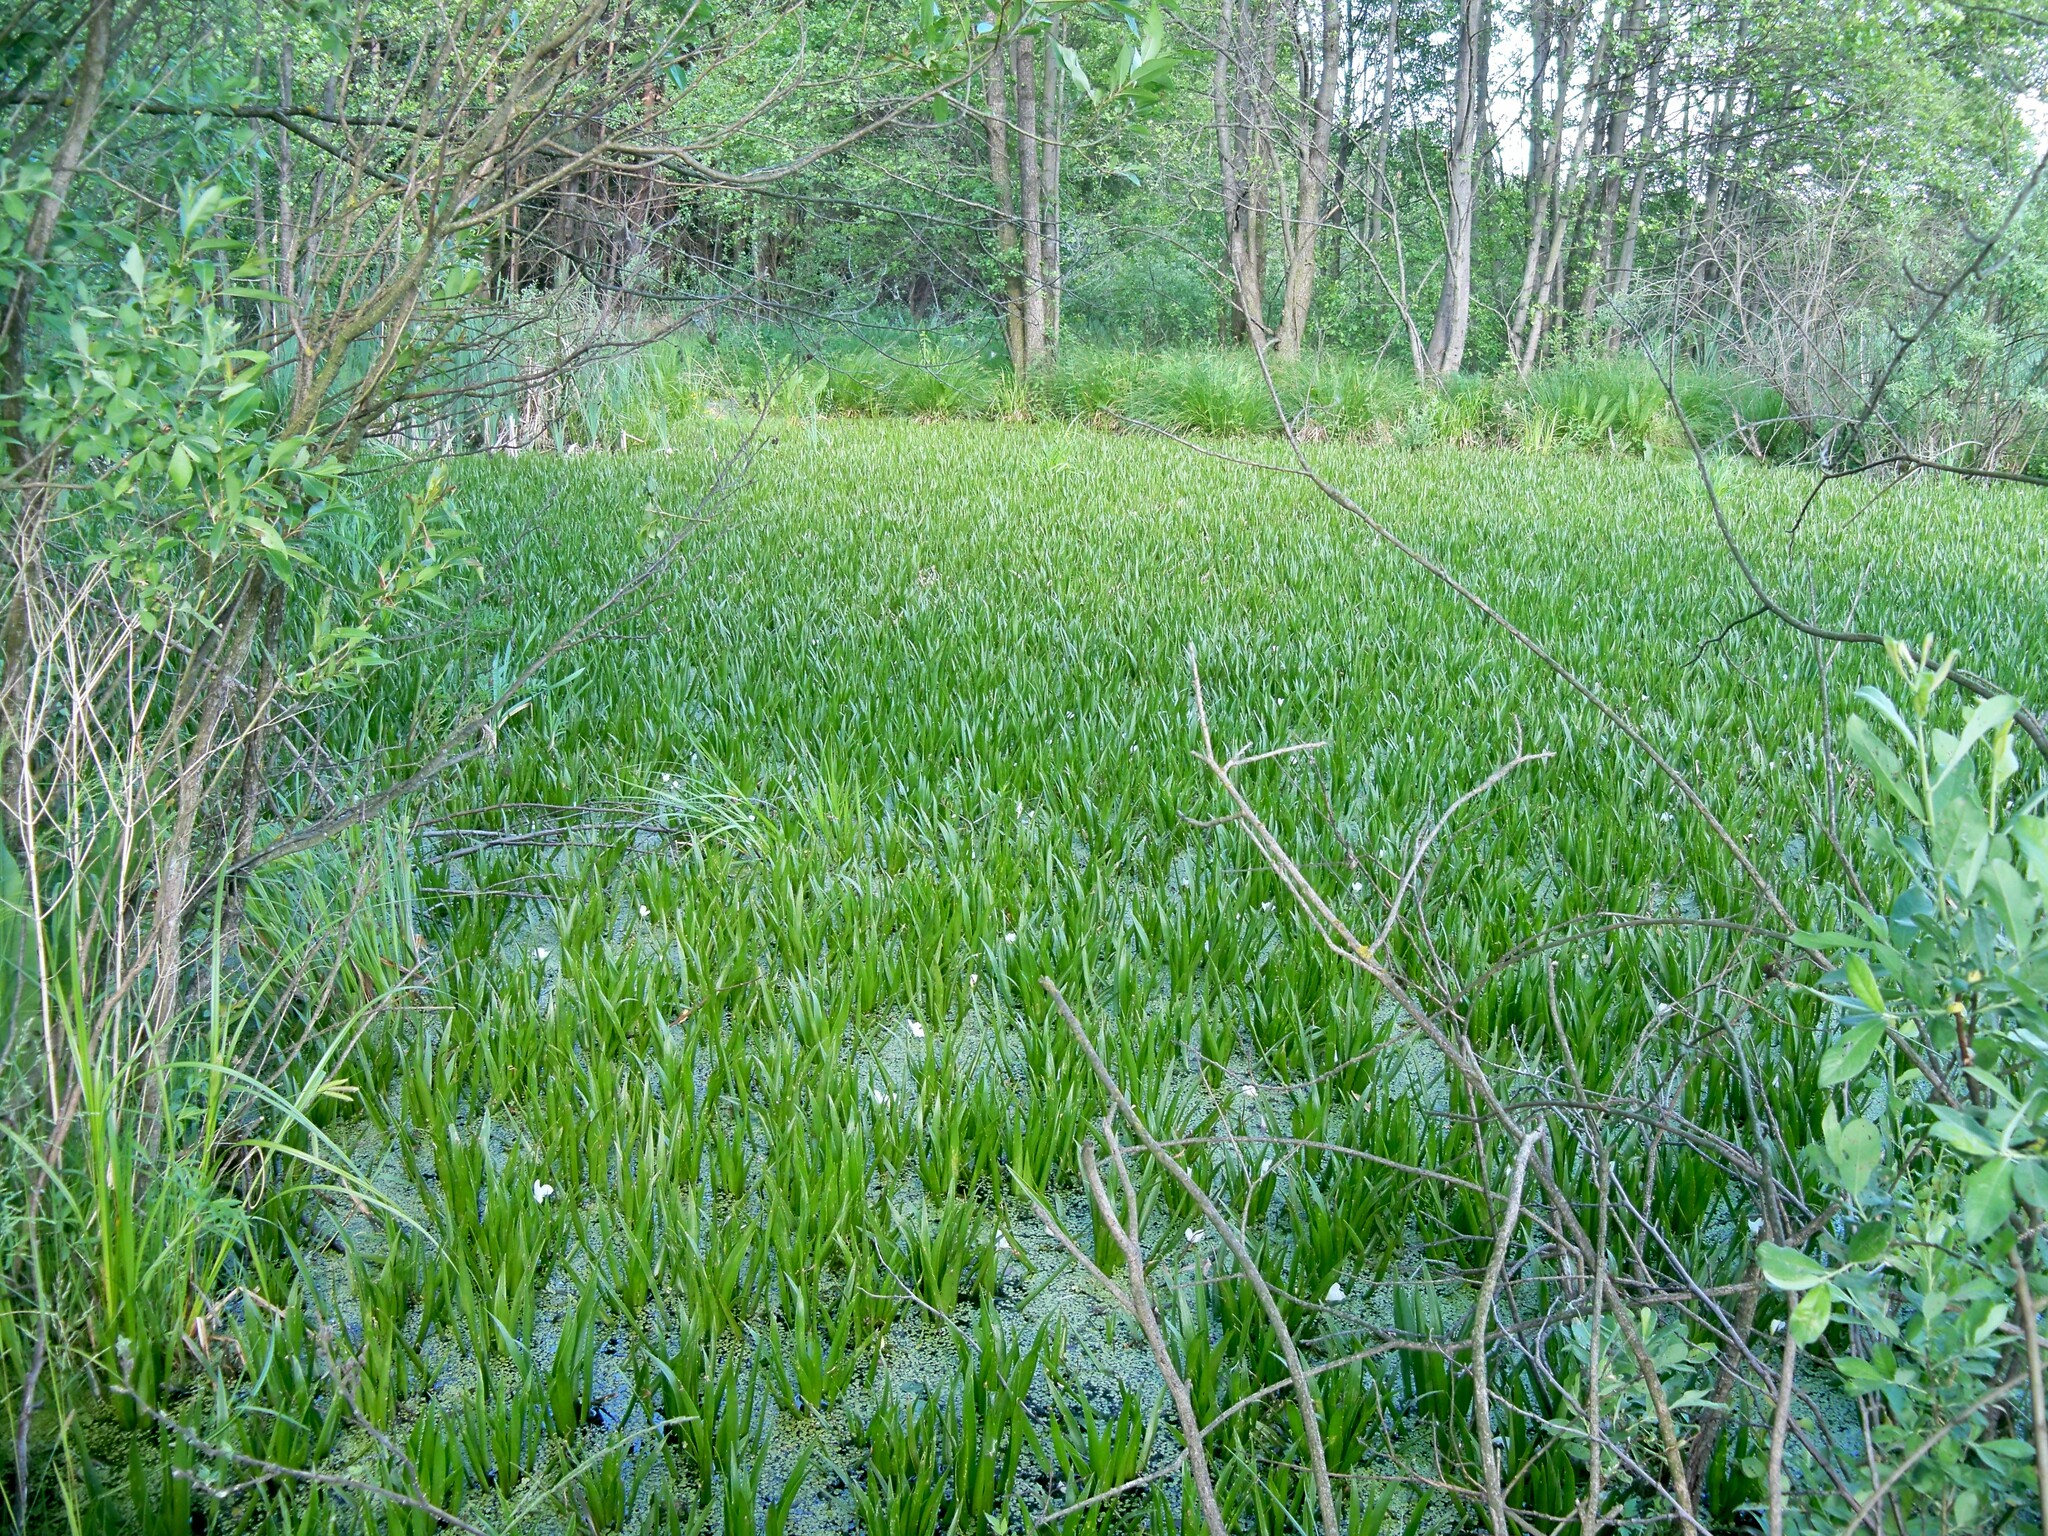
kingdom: Plantae
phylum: Tracheophyta
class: Liliopsida
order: Alismatales
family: Hydrocharitaceae
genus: Stratiotes
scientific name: Stratiotes aloides
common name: Water-soldier
